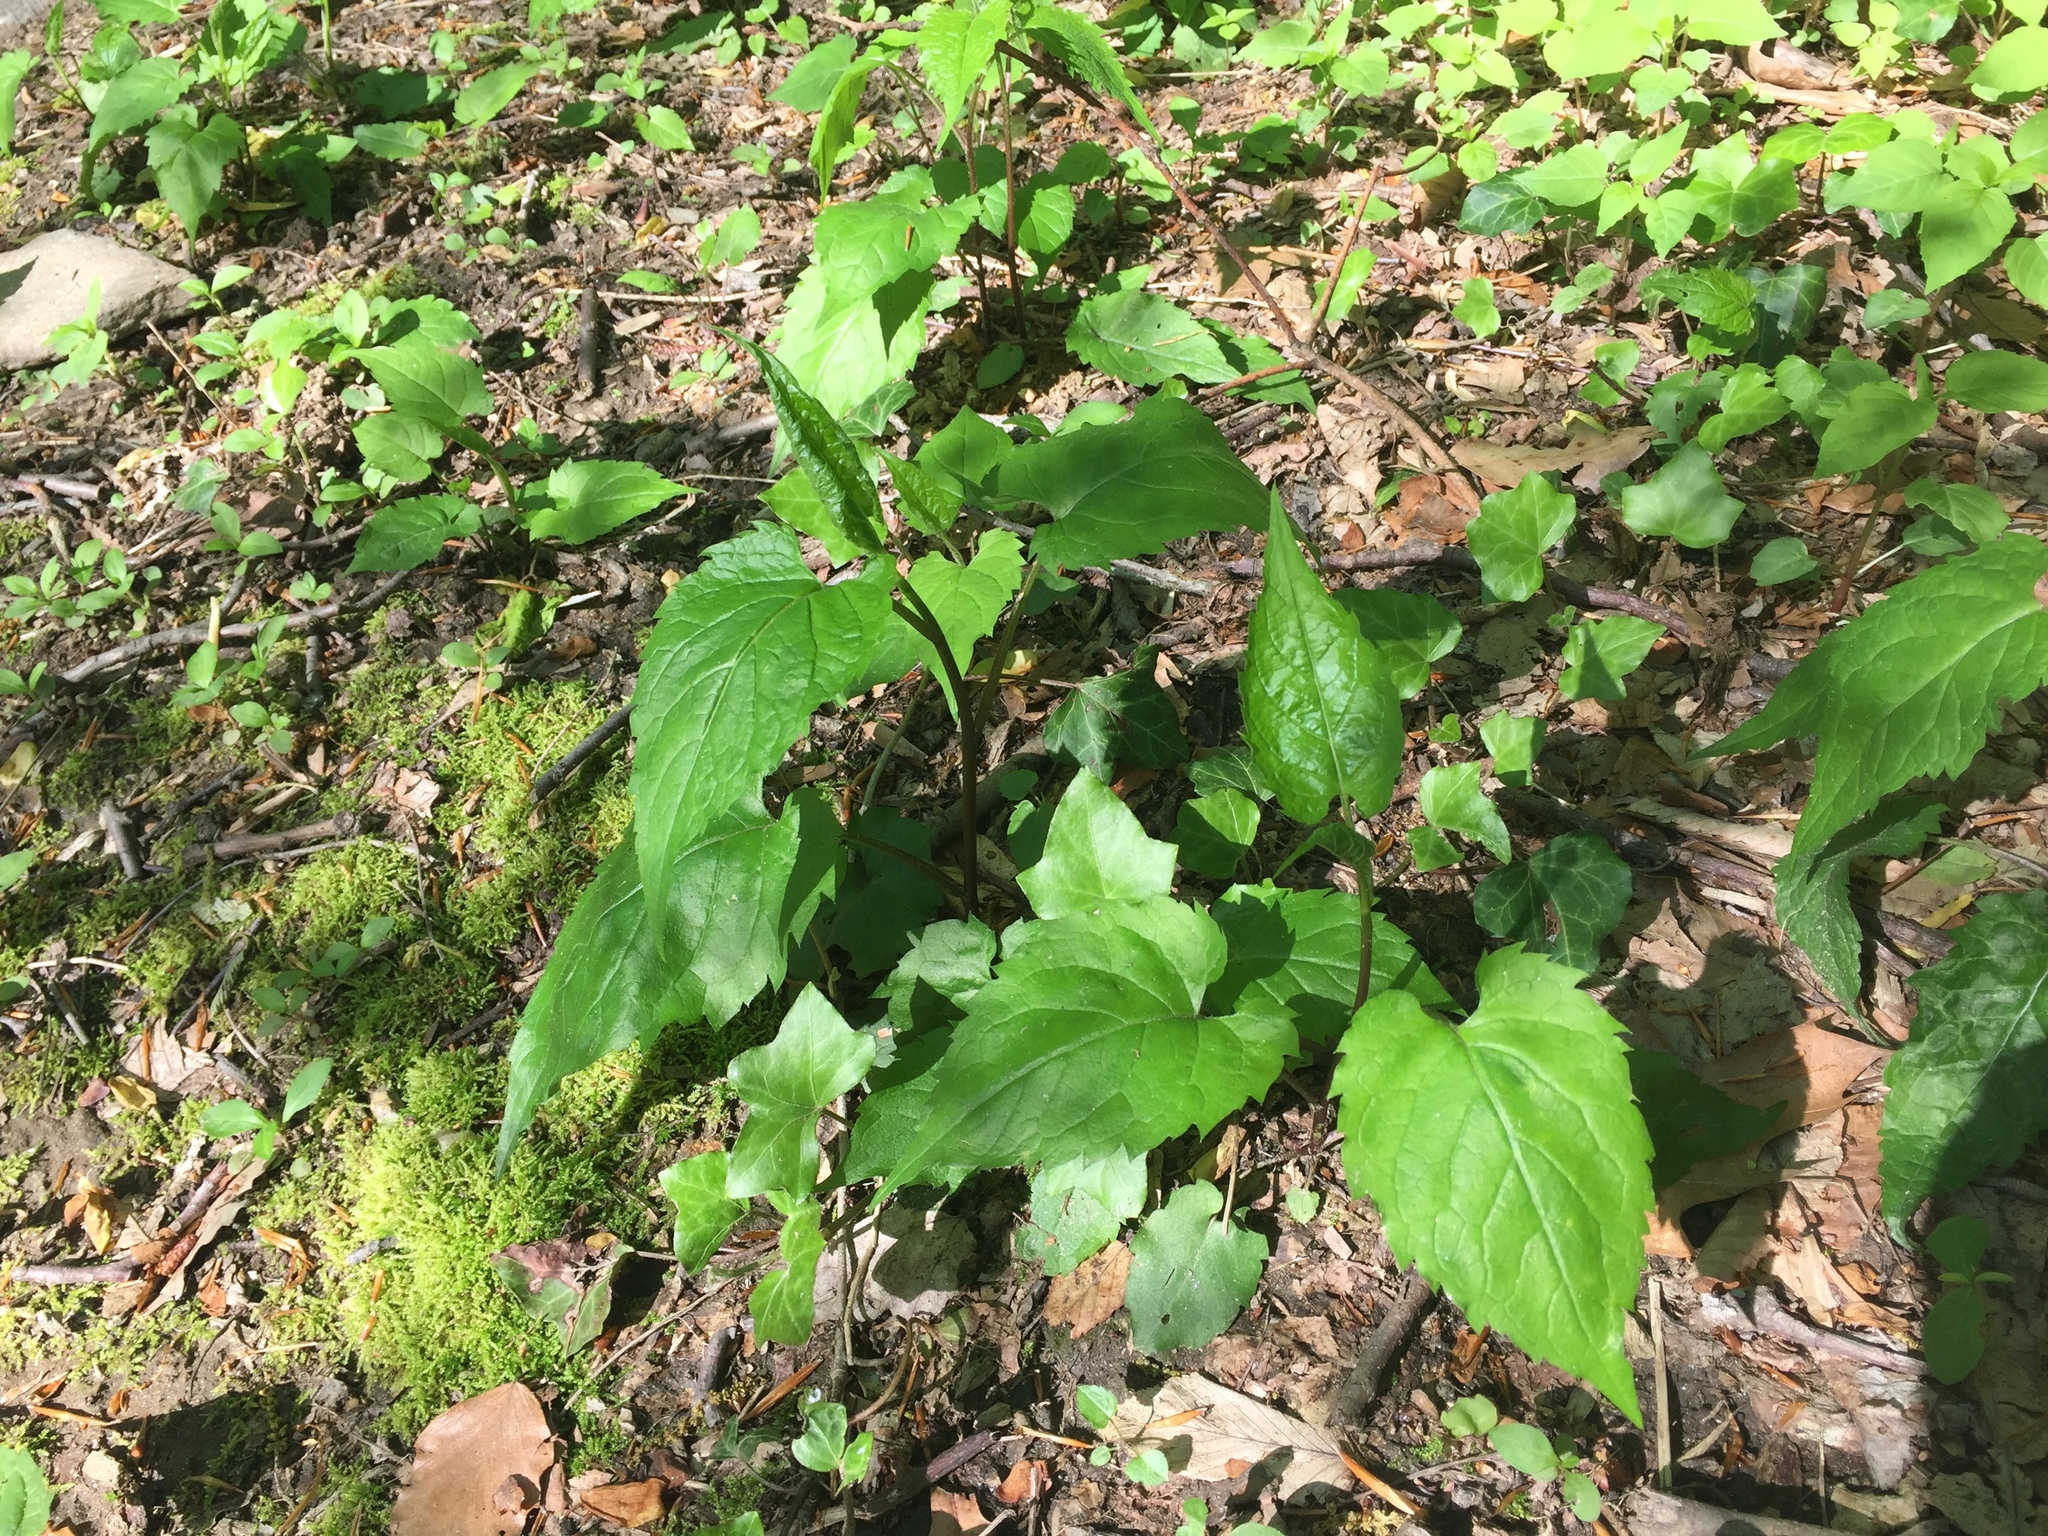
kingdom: Plantae
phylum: Tracheophyta
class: Magnoliopsida
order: Asterales
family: Asteraceae
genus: Eurybia
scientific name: Eurybia divaricata
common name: White wood aster
